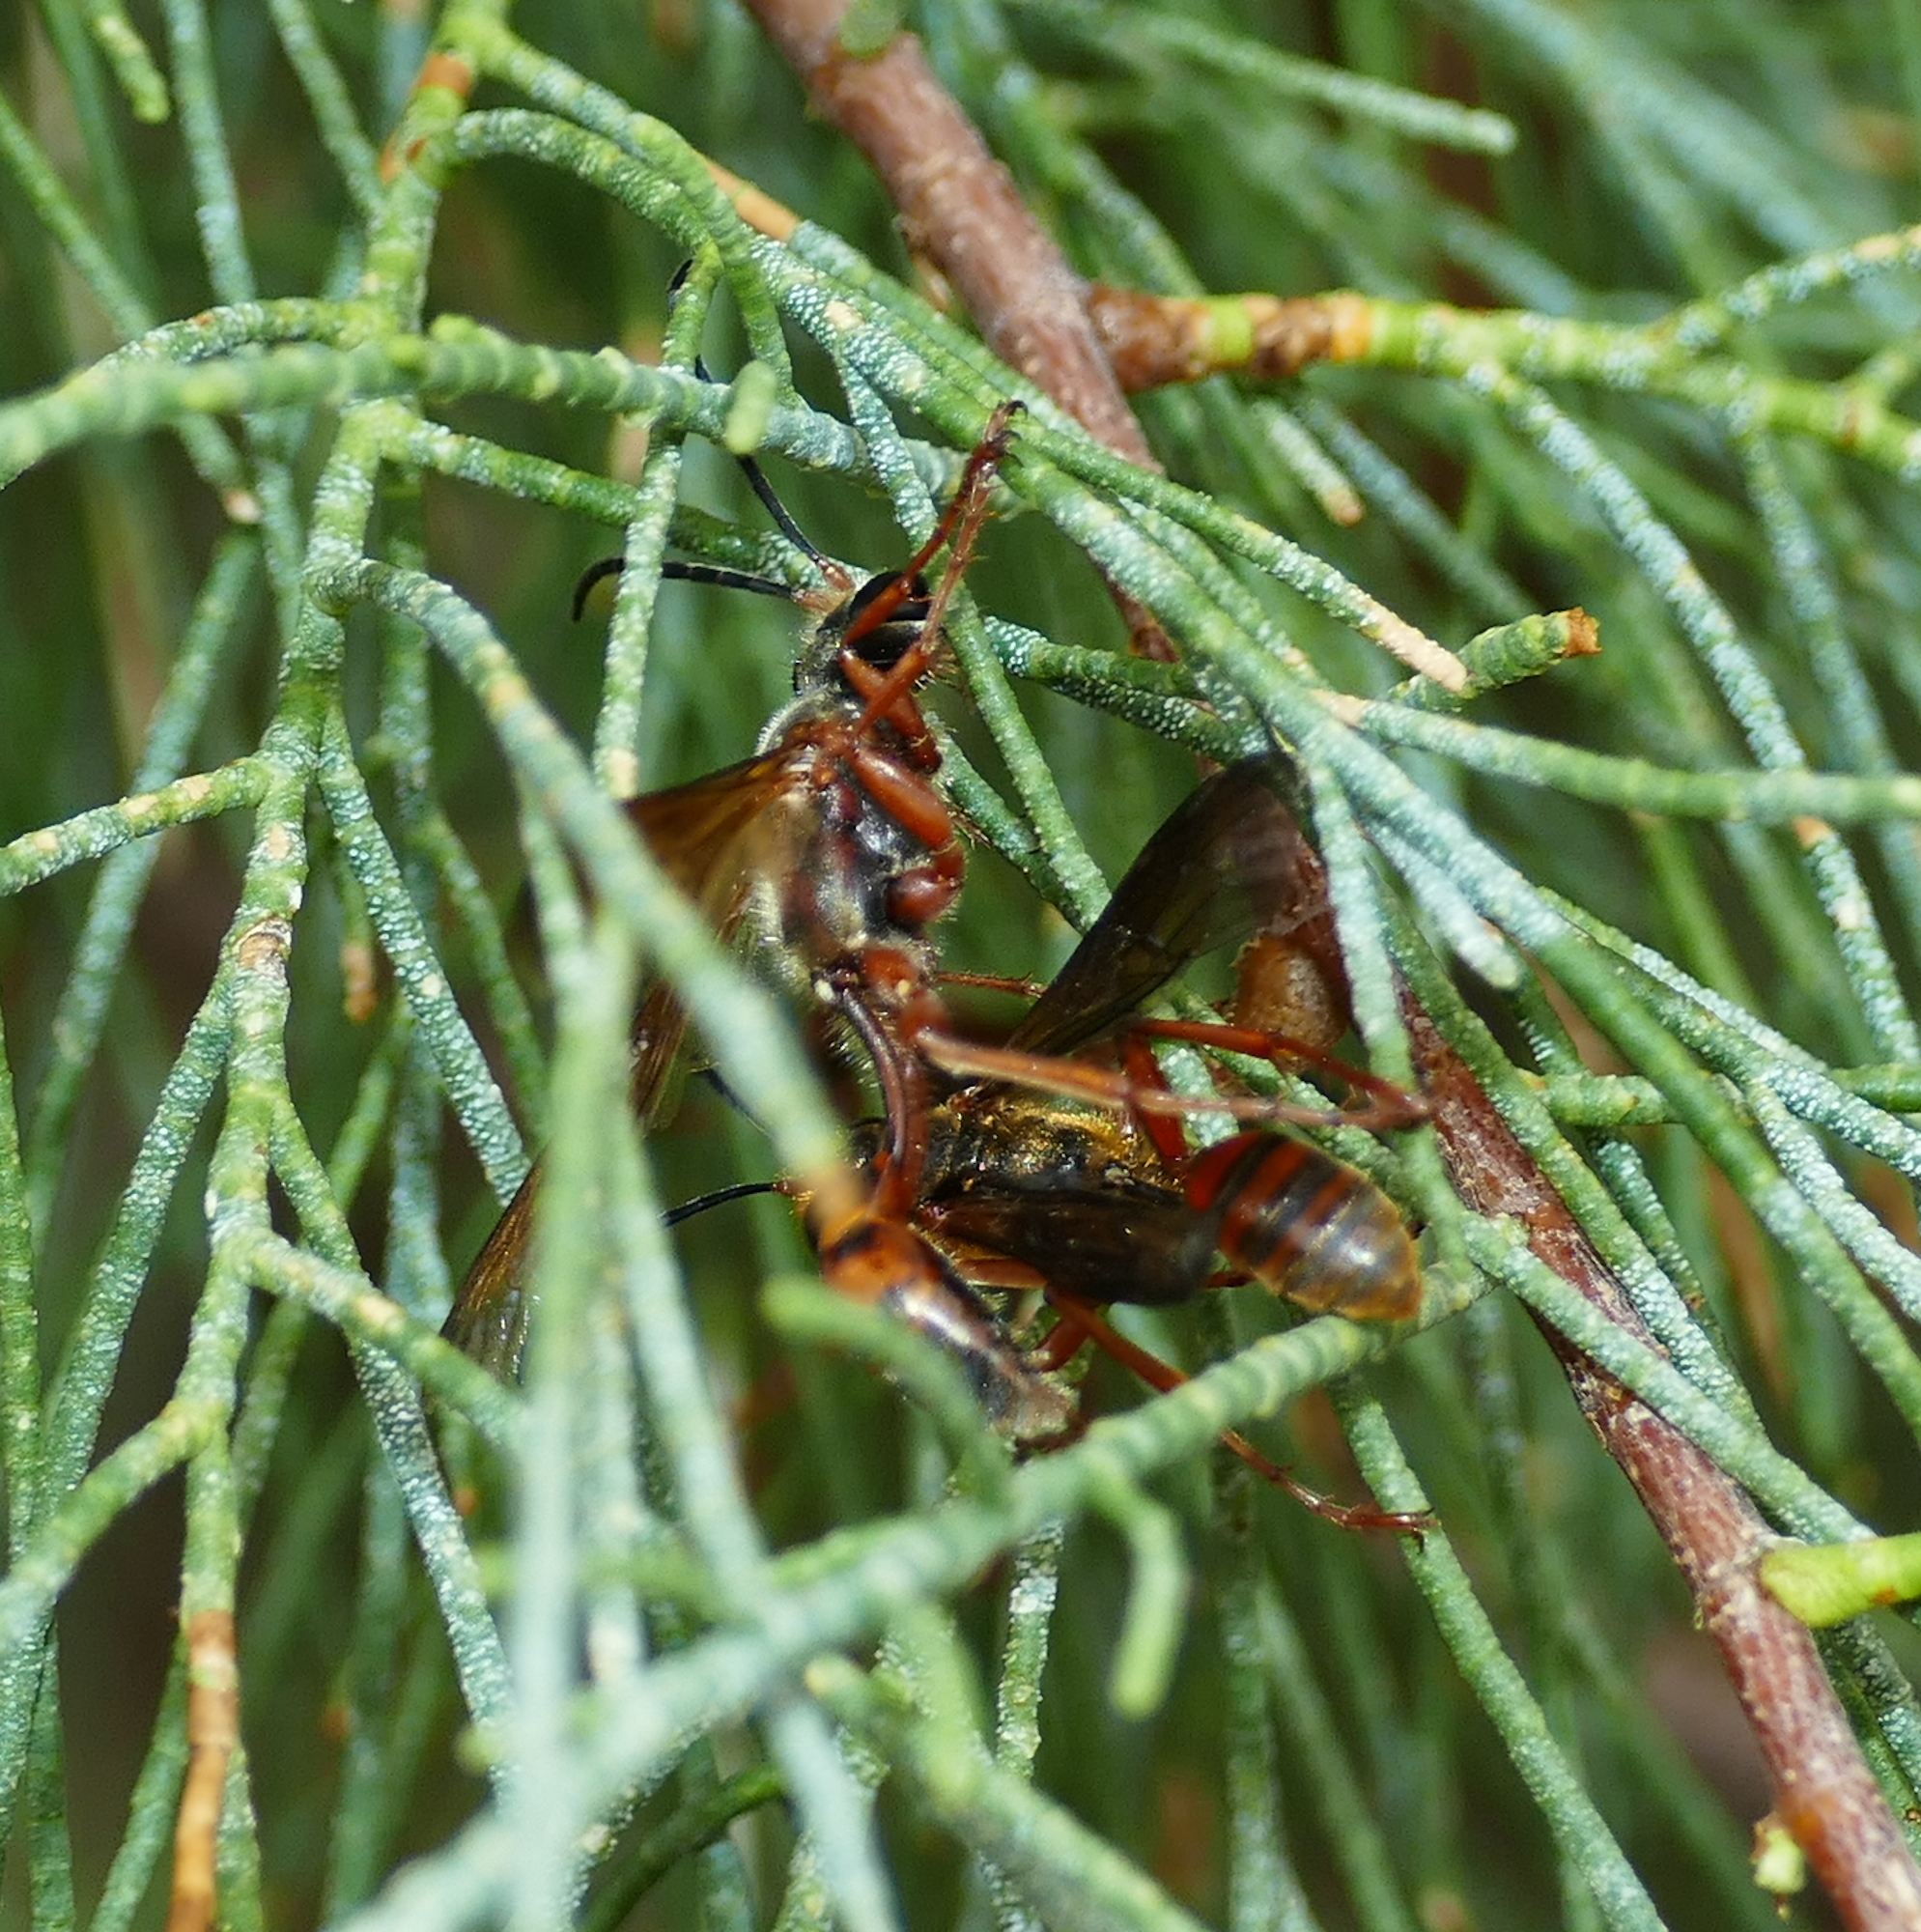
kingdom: Animalia
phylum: Arthropoda
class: Insecta
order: Hymenoptera
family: Sphecidae
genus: Isodontia
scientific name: Isodontia elegans
